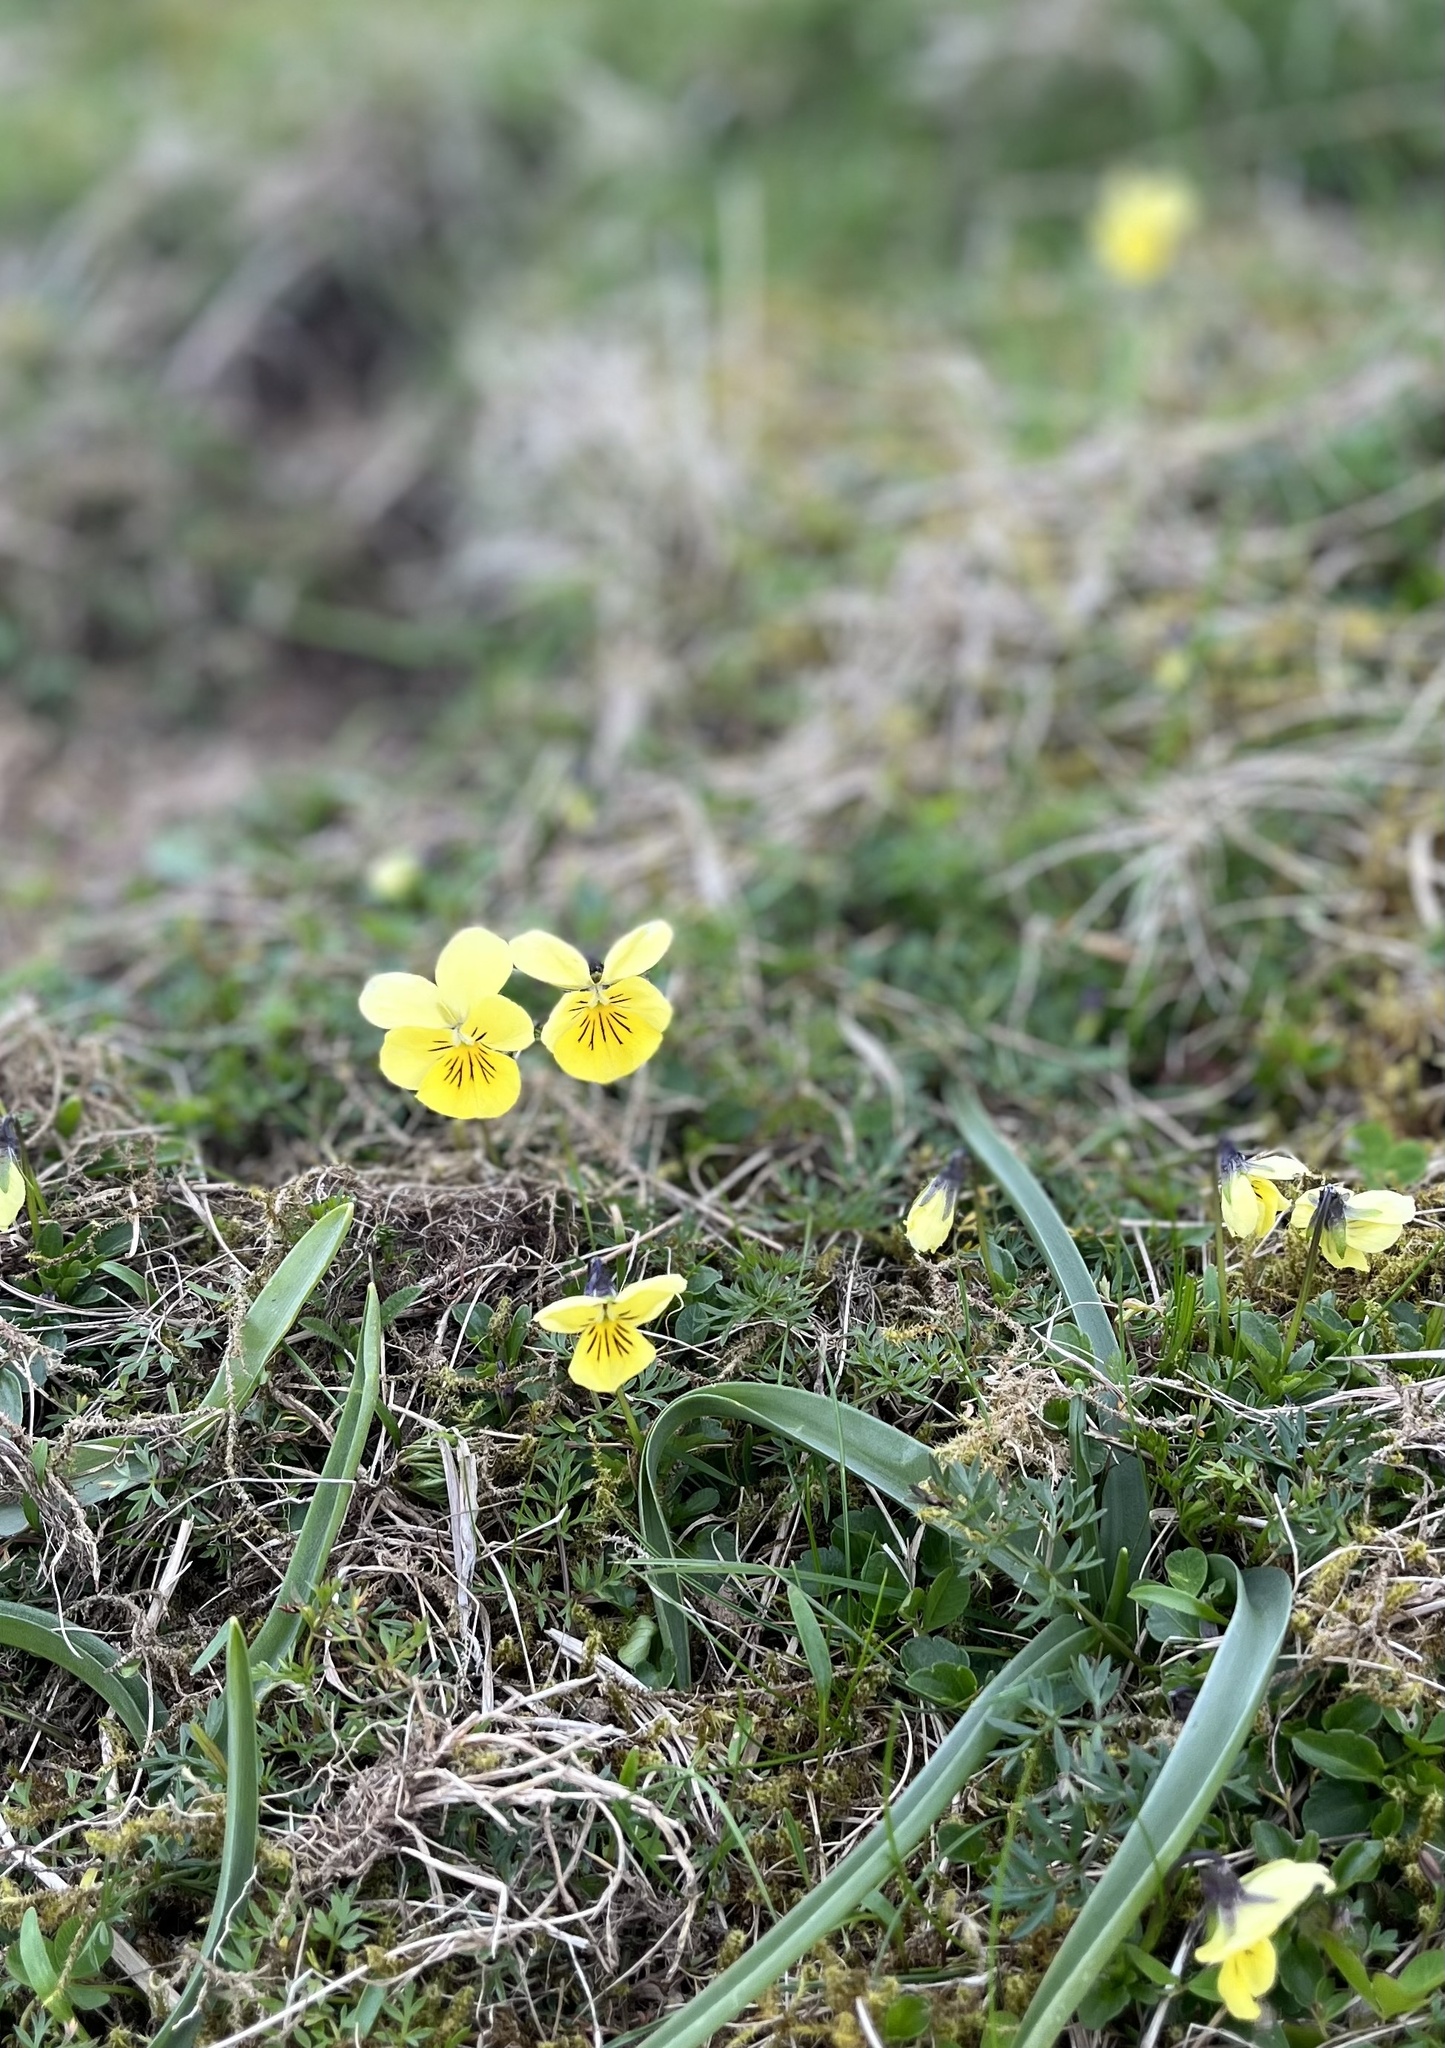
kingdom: Plantae
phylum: Tracheophyta
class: Magnoliopsida
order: Malpighiales
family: Violaceae
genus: Viola
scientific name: Viola lutea
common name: Mountain pansy
